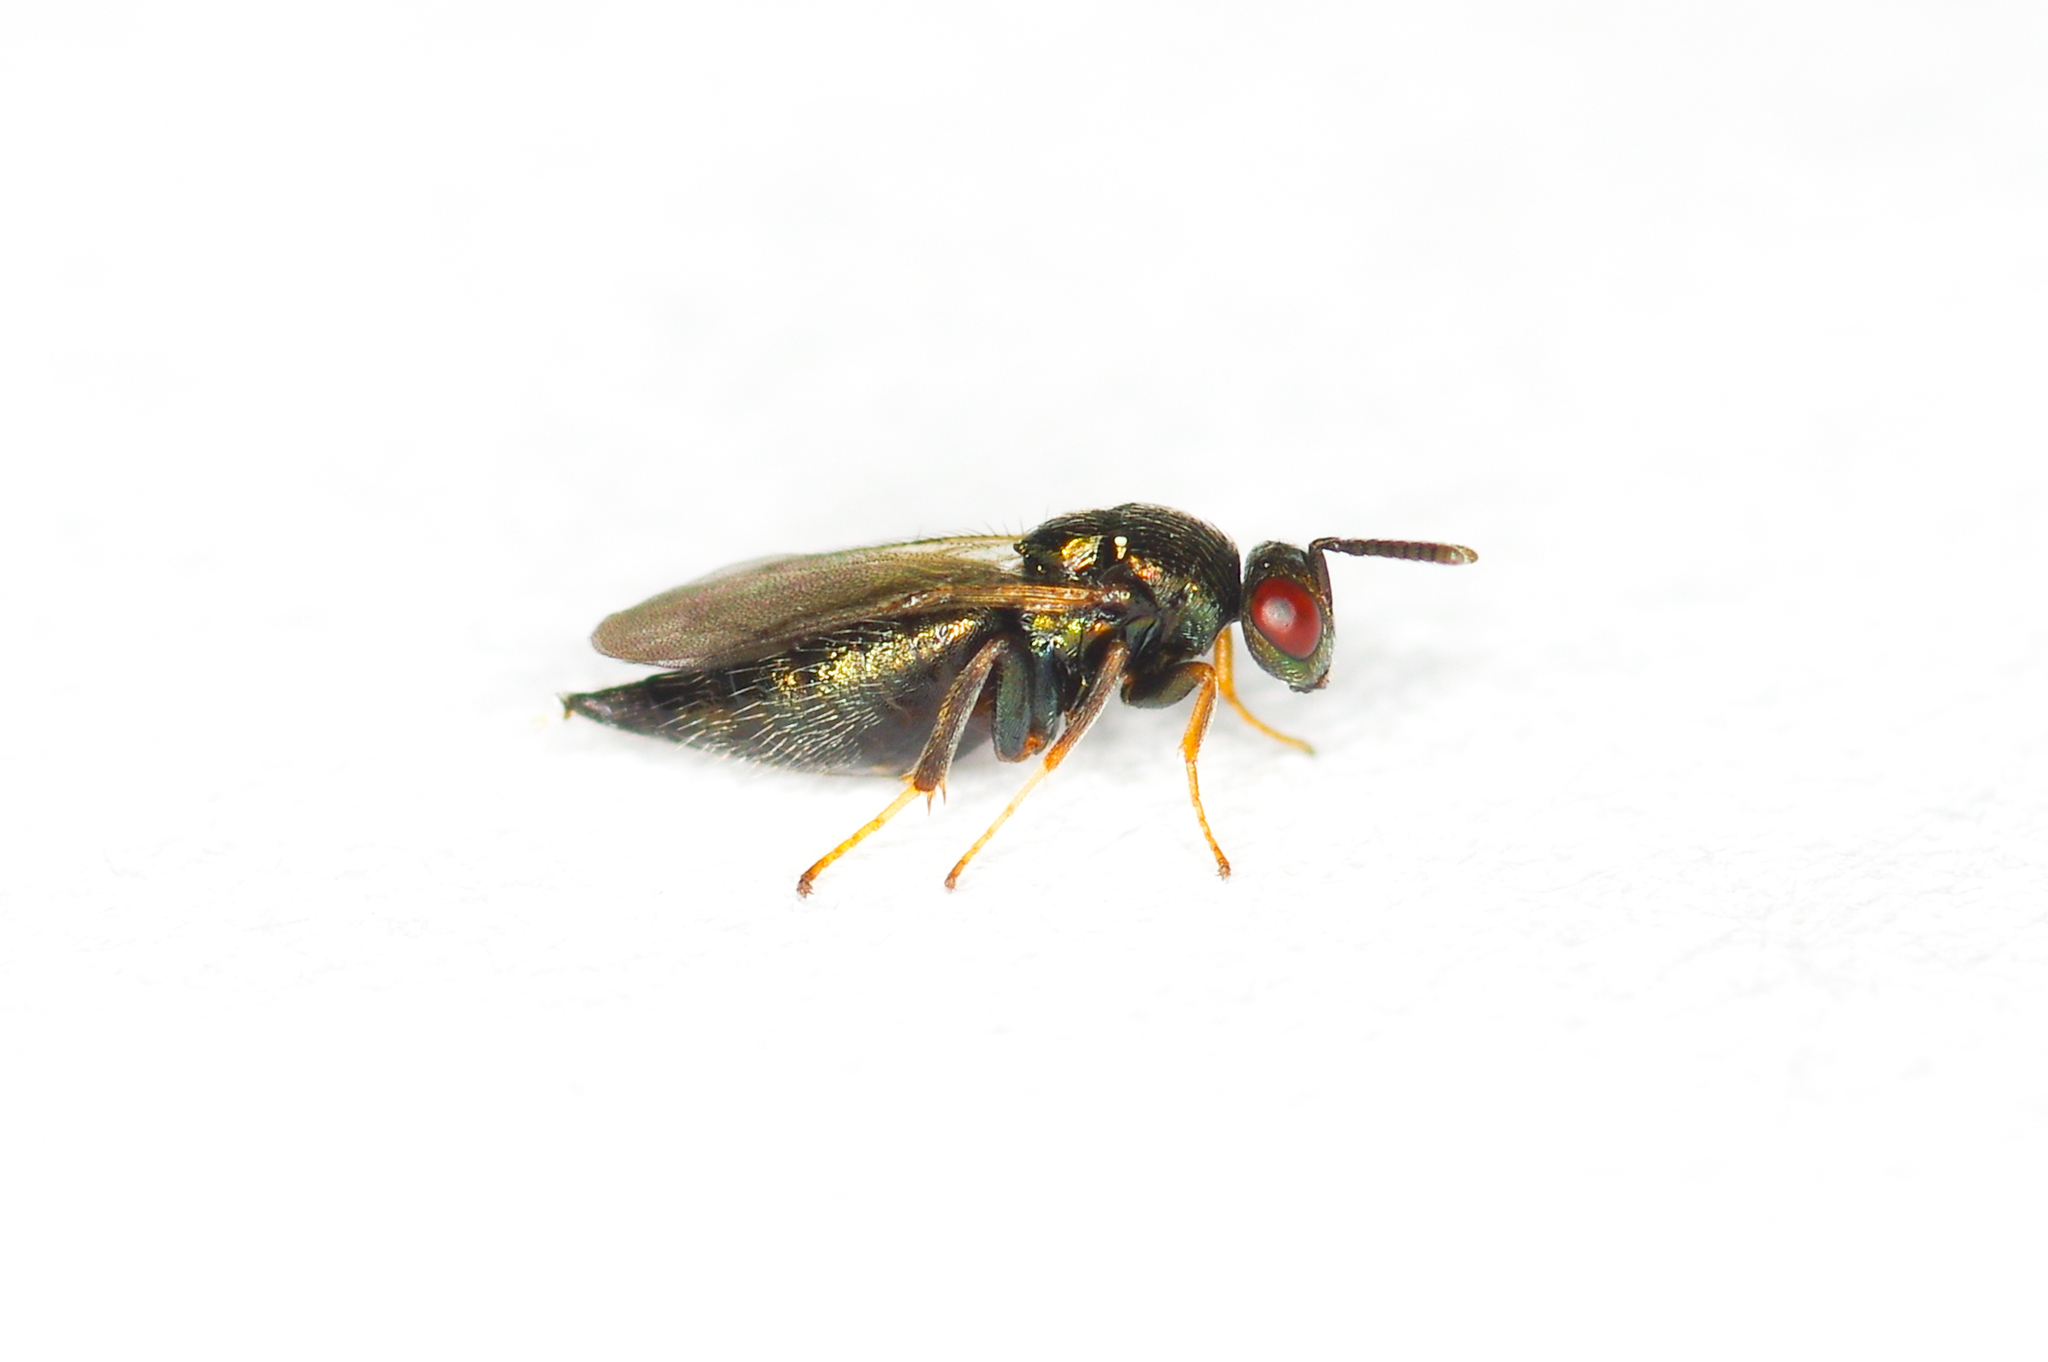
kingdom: Animalia
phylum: Arthropoda
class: Insecta
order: Hymenoptera
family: Ormyridae
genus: Ormyrus
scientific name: Ormyrus rosae
